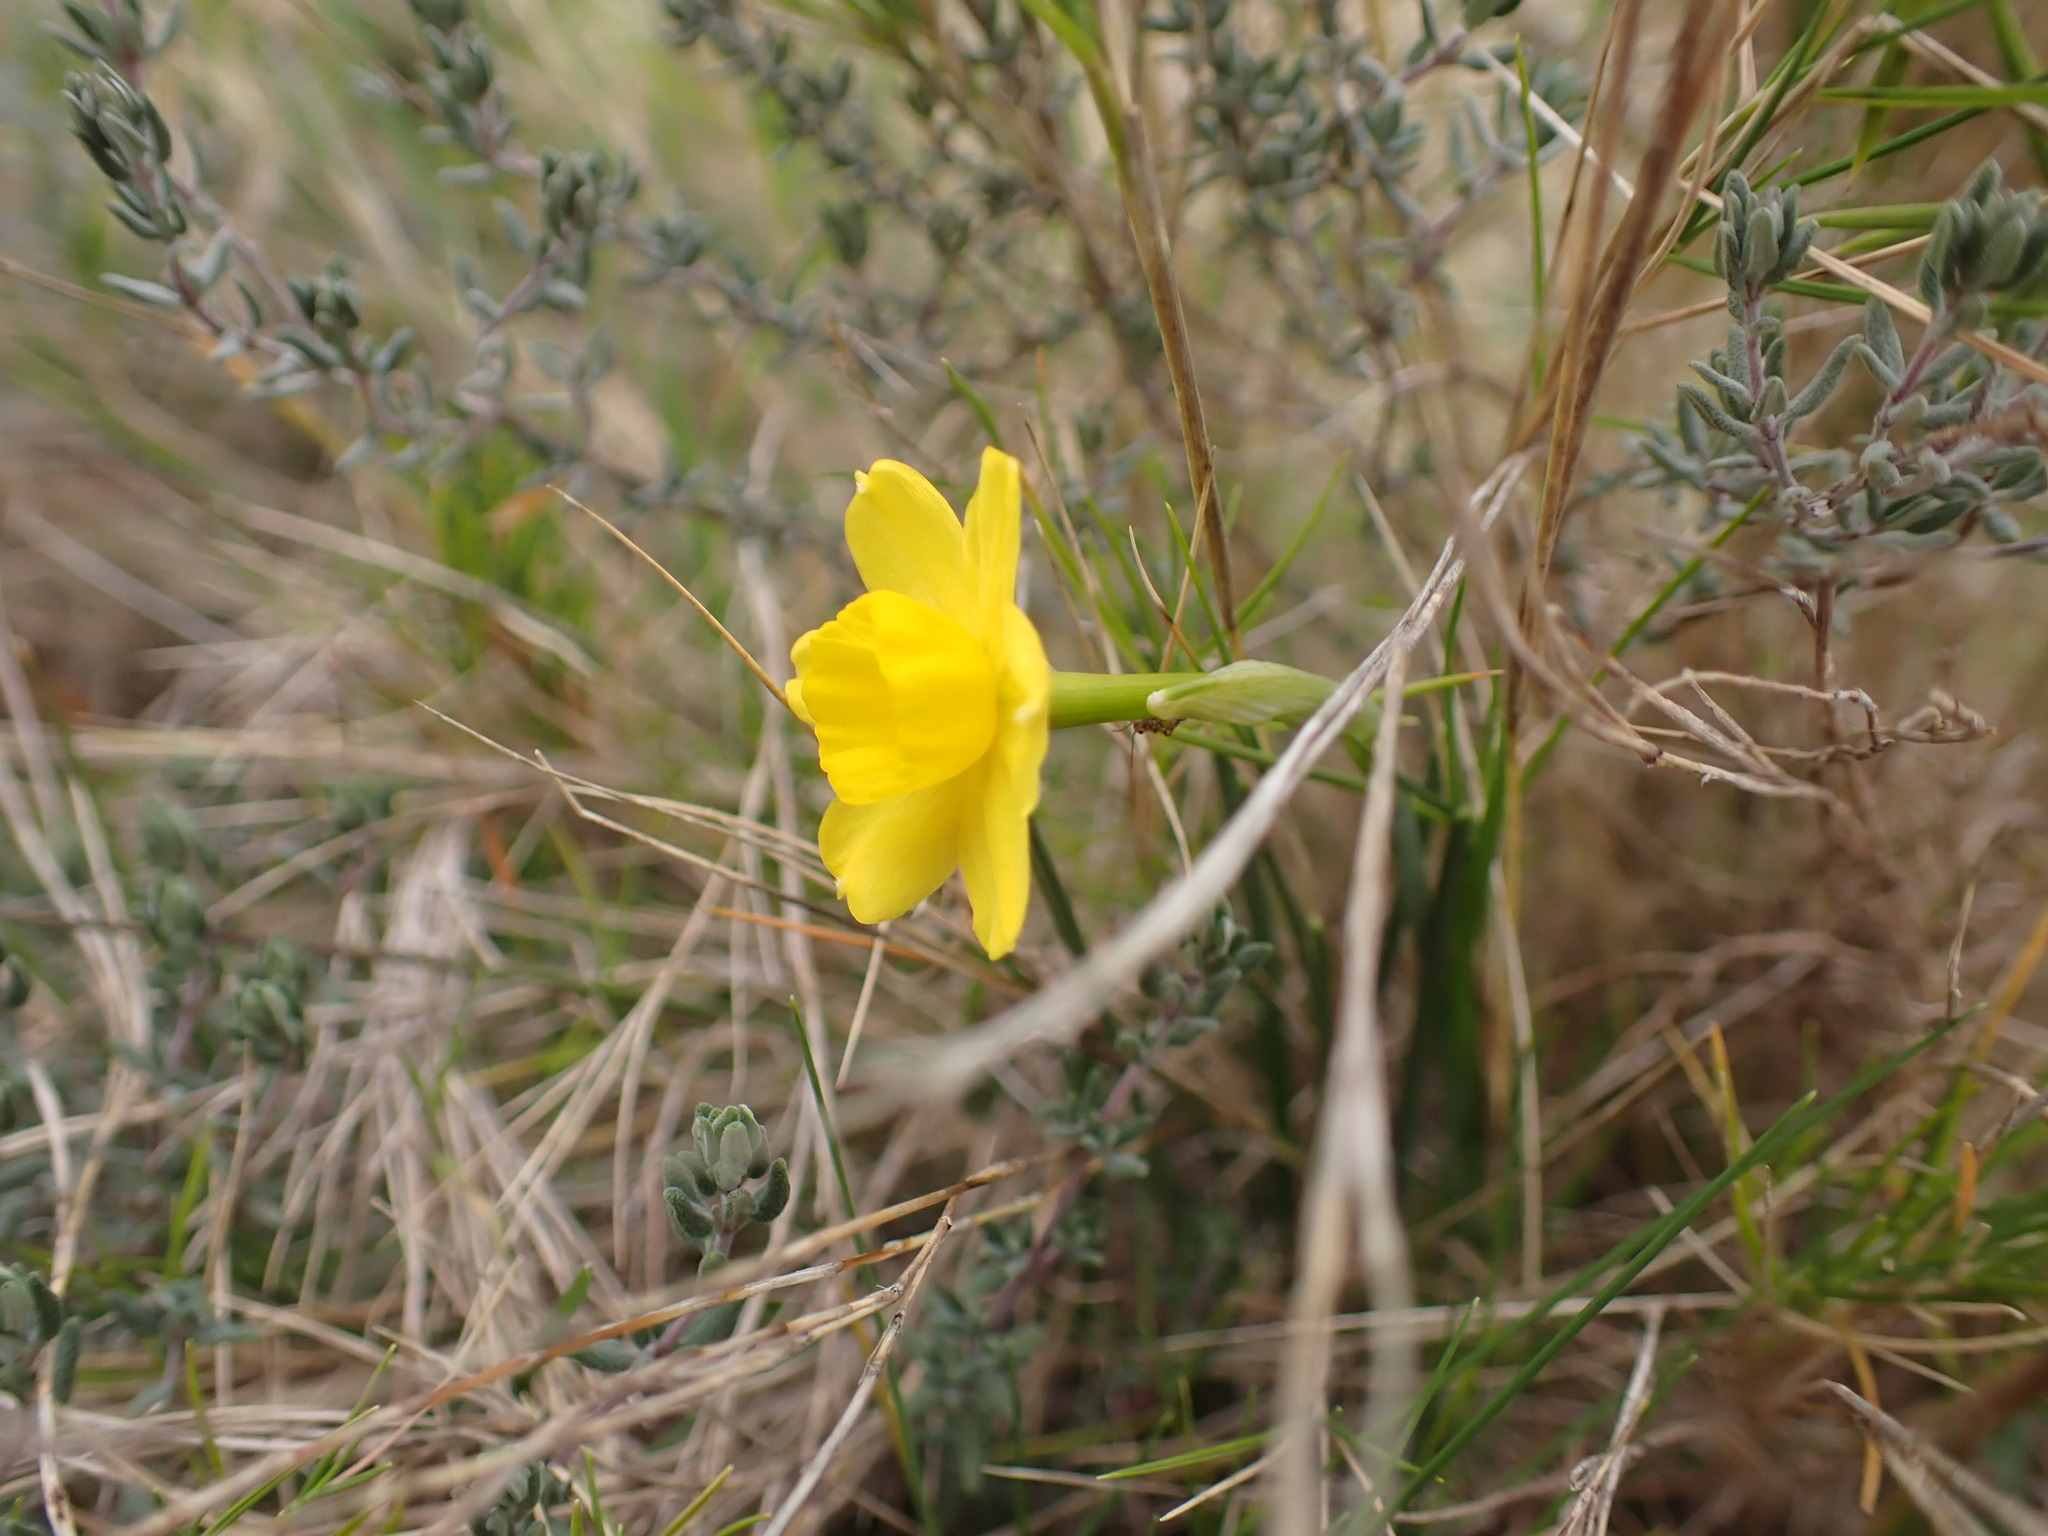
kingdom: Plantae
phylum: Tracheophyta
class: Liliopsida
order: Asparagales
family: Amaryllidaceae
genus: Narcissus
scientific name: Narcissus assoanus
